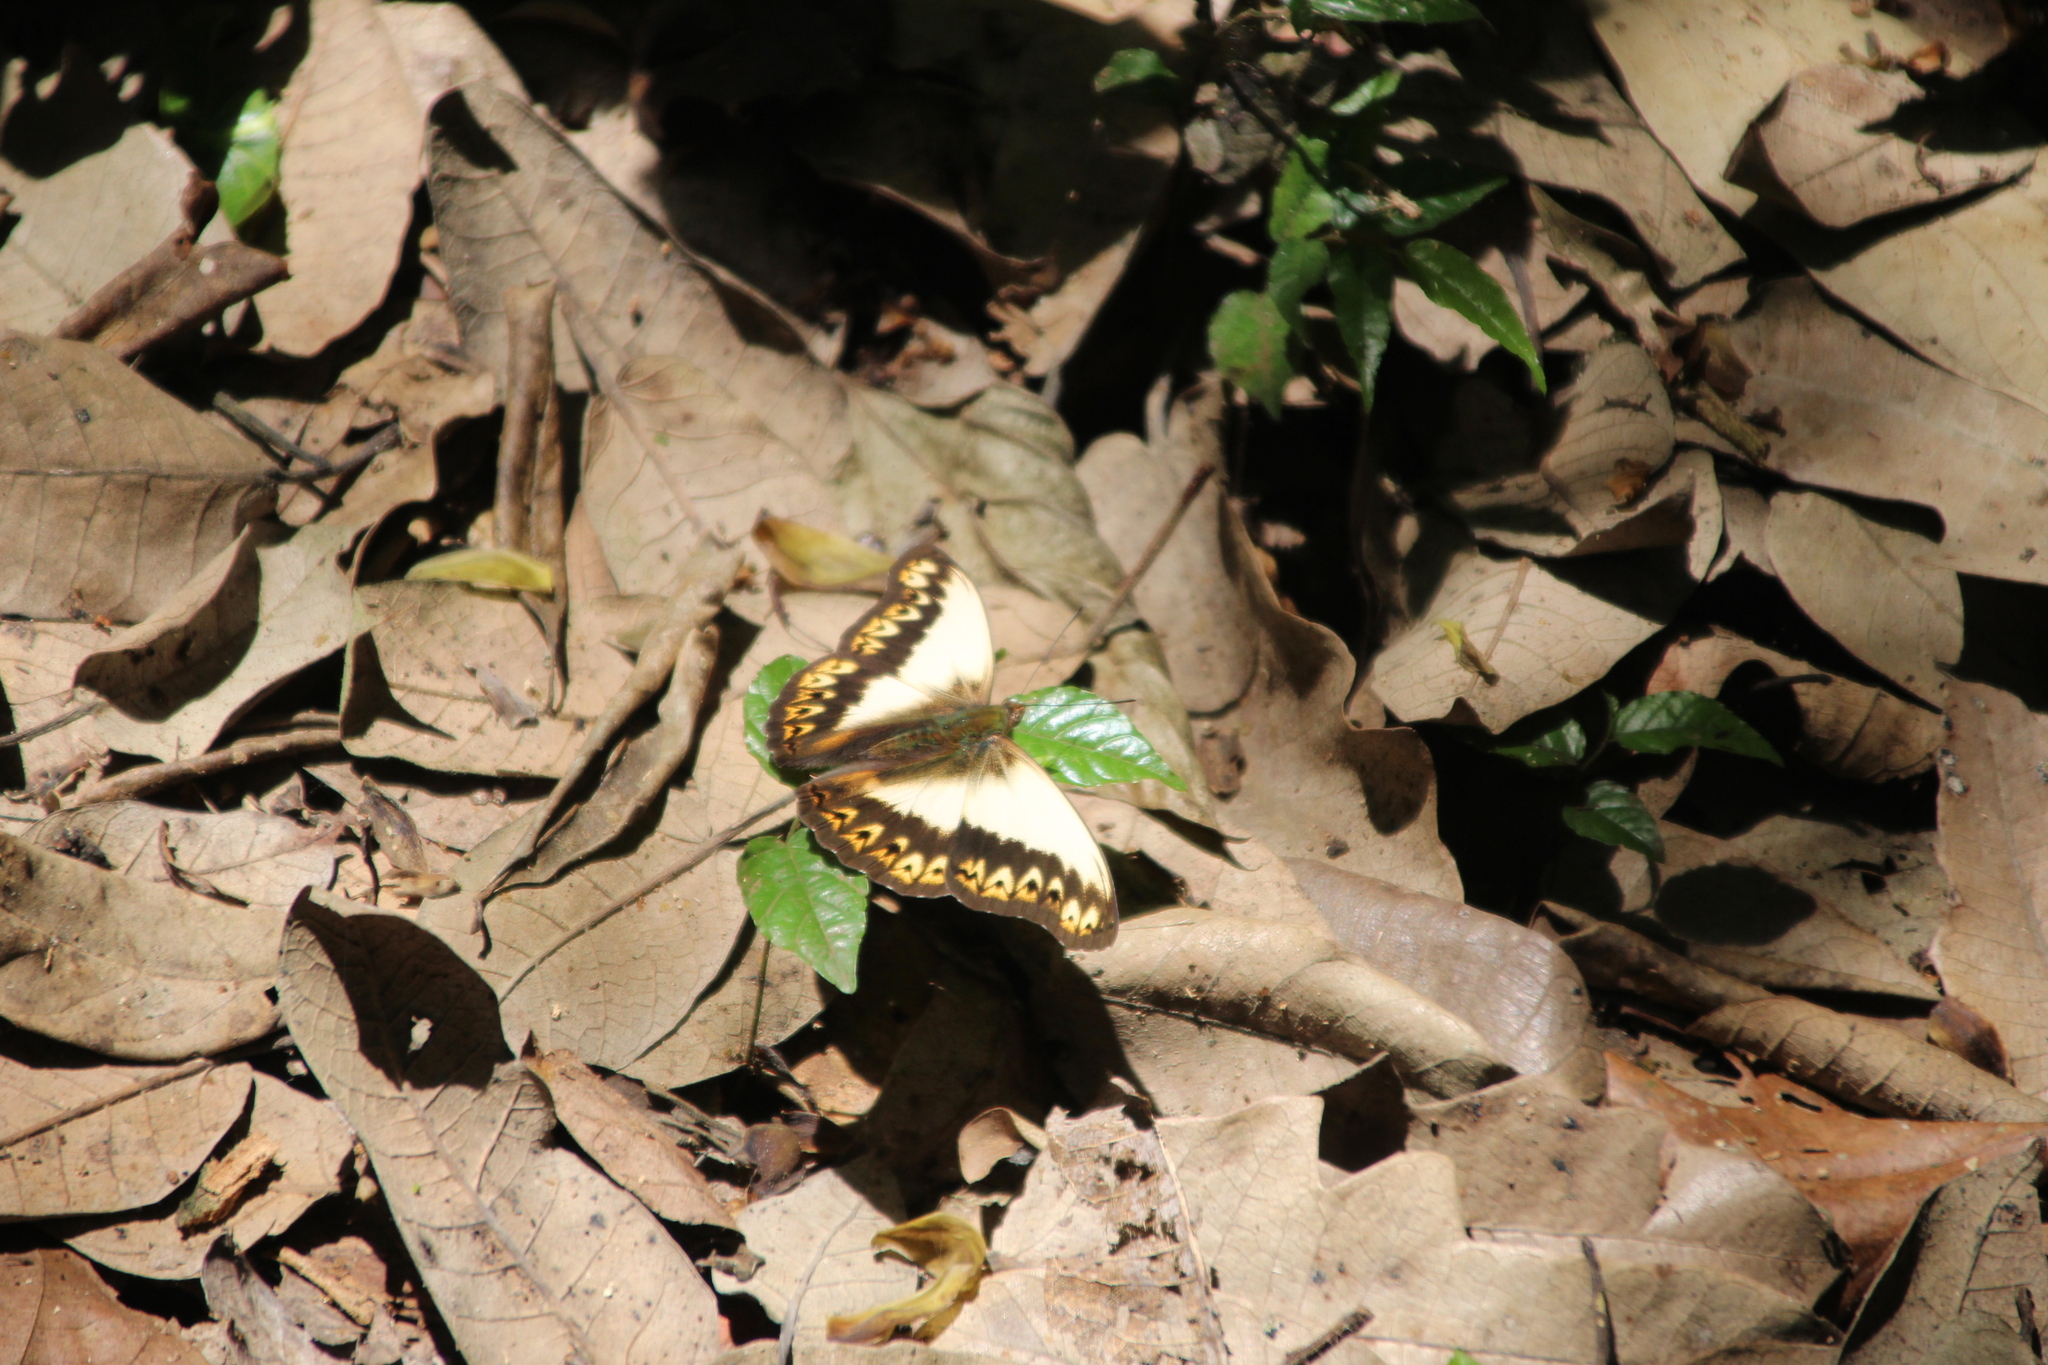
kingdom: Animalia
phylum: Arthropoda
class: Insecta
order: Lepidoptera
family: Nymphalidae
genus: Cymothoe
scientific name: Cymothoe herminia
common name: Herminia glider
